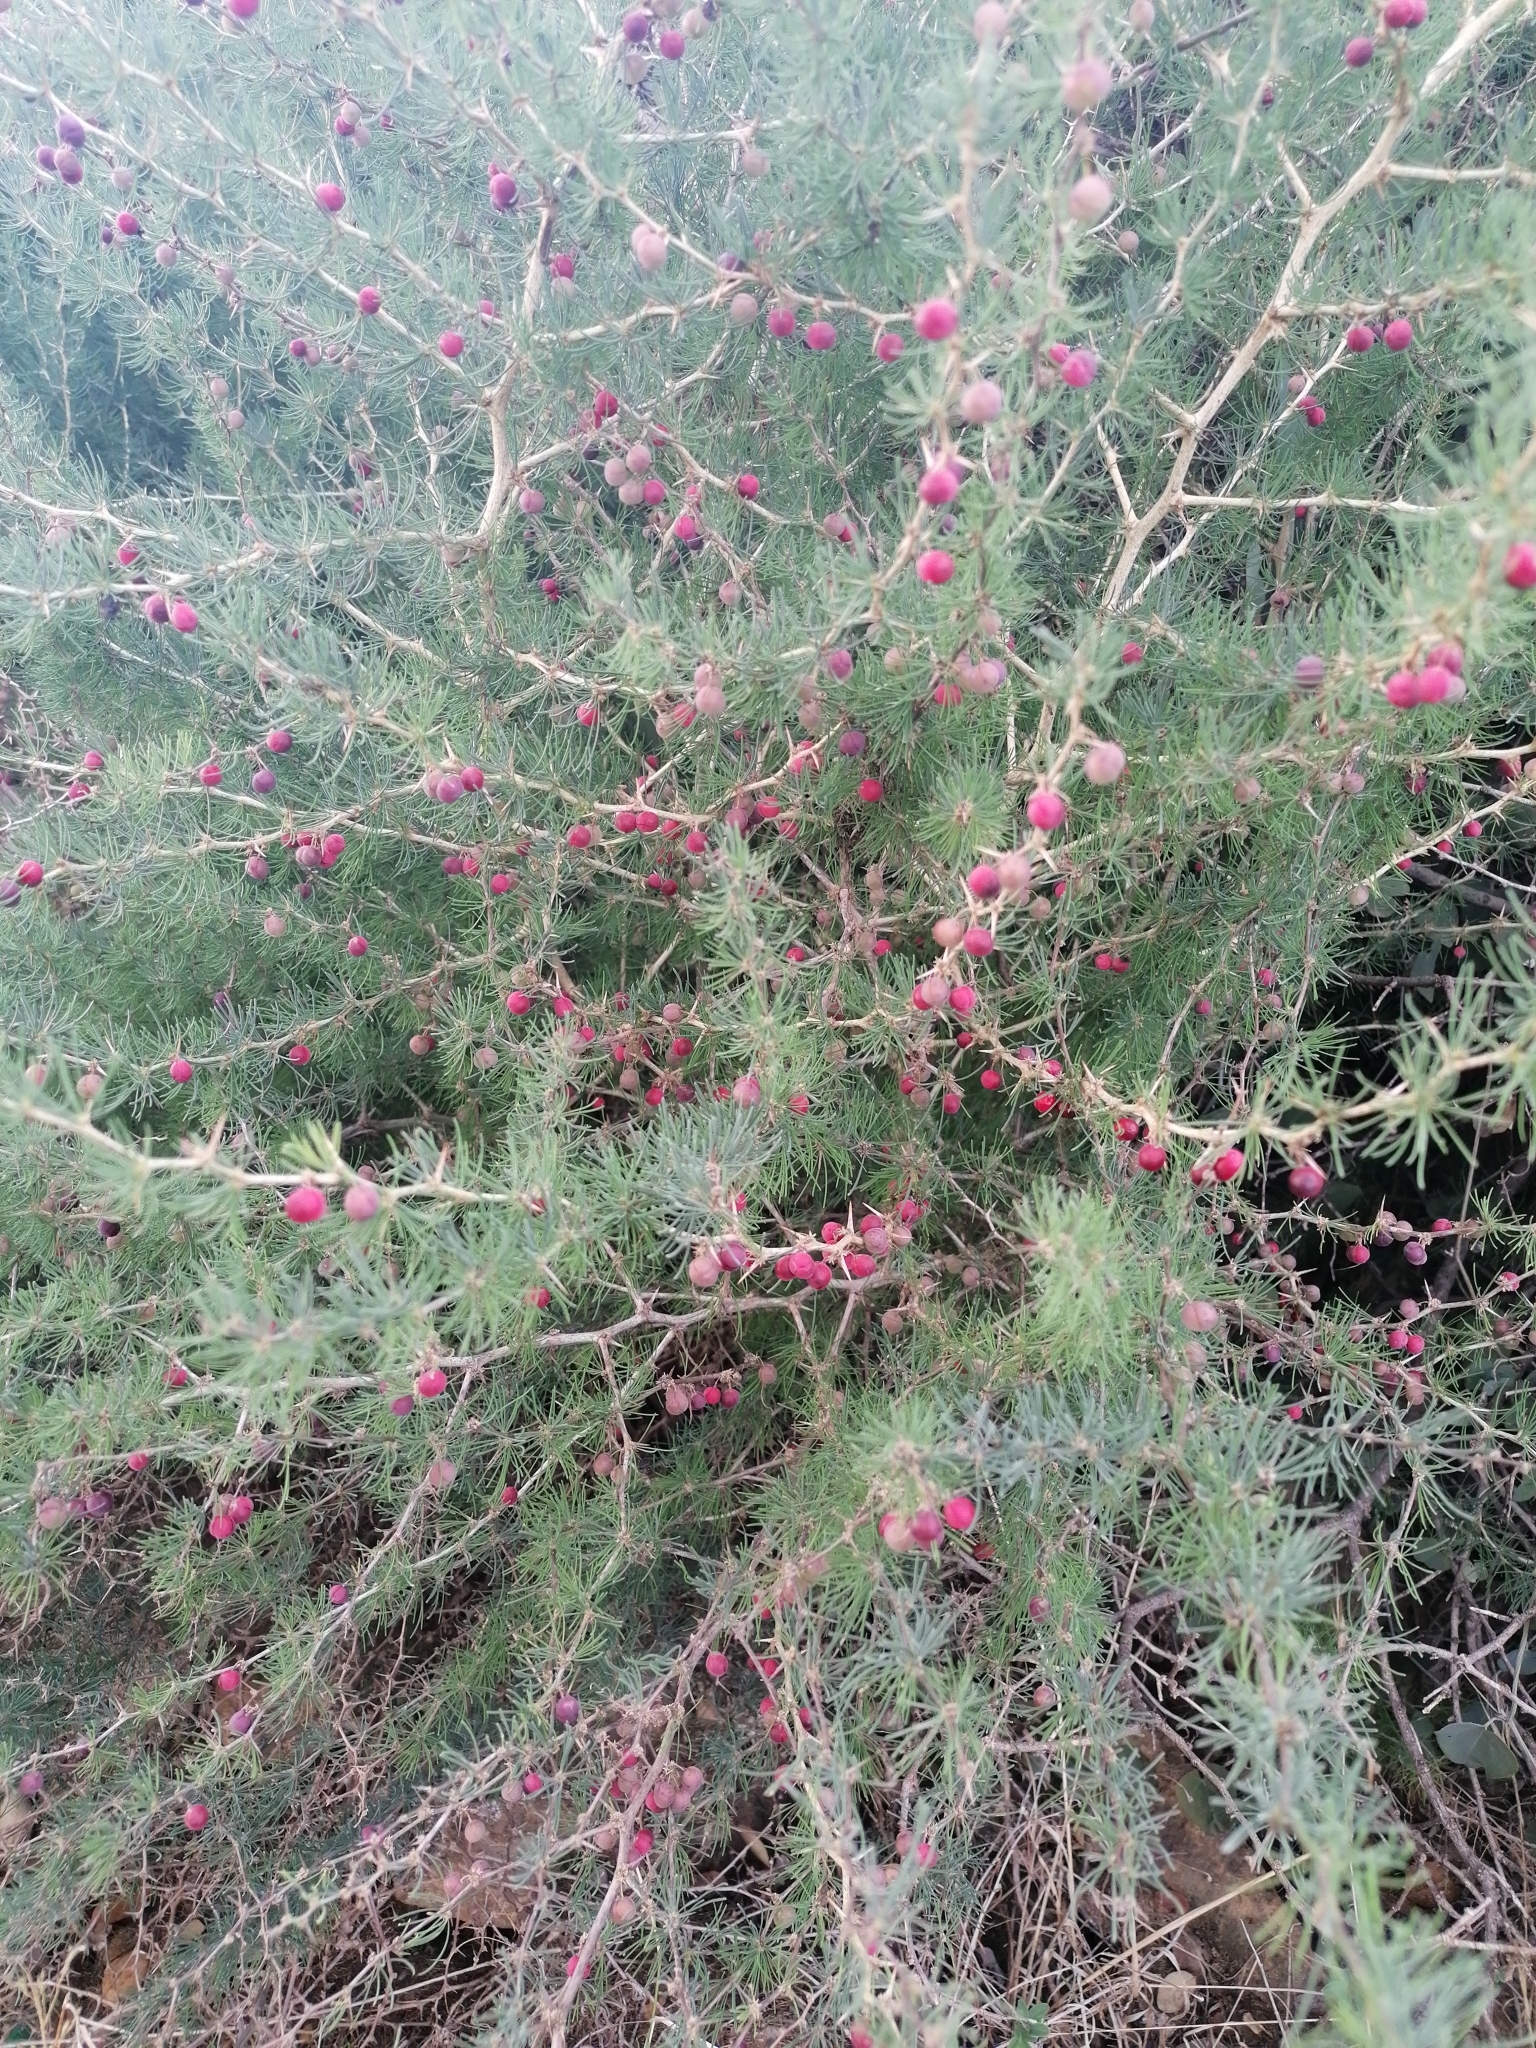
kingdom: Plantae
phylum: Tracheophyta
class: Liliopsida
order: Asparagales
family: Asparagaceae
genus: Asparagus
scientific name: Asparagus albus
